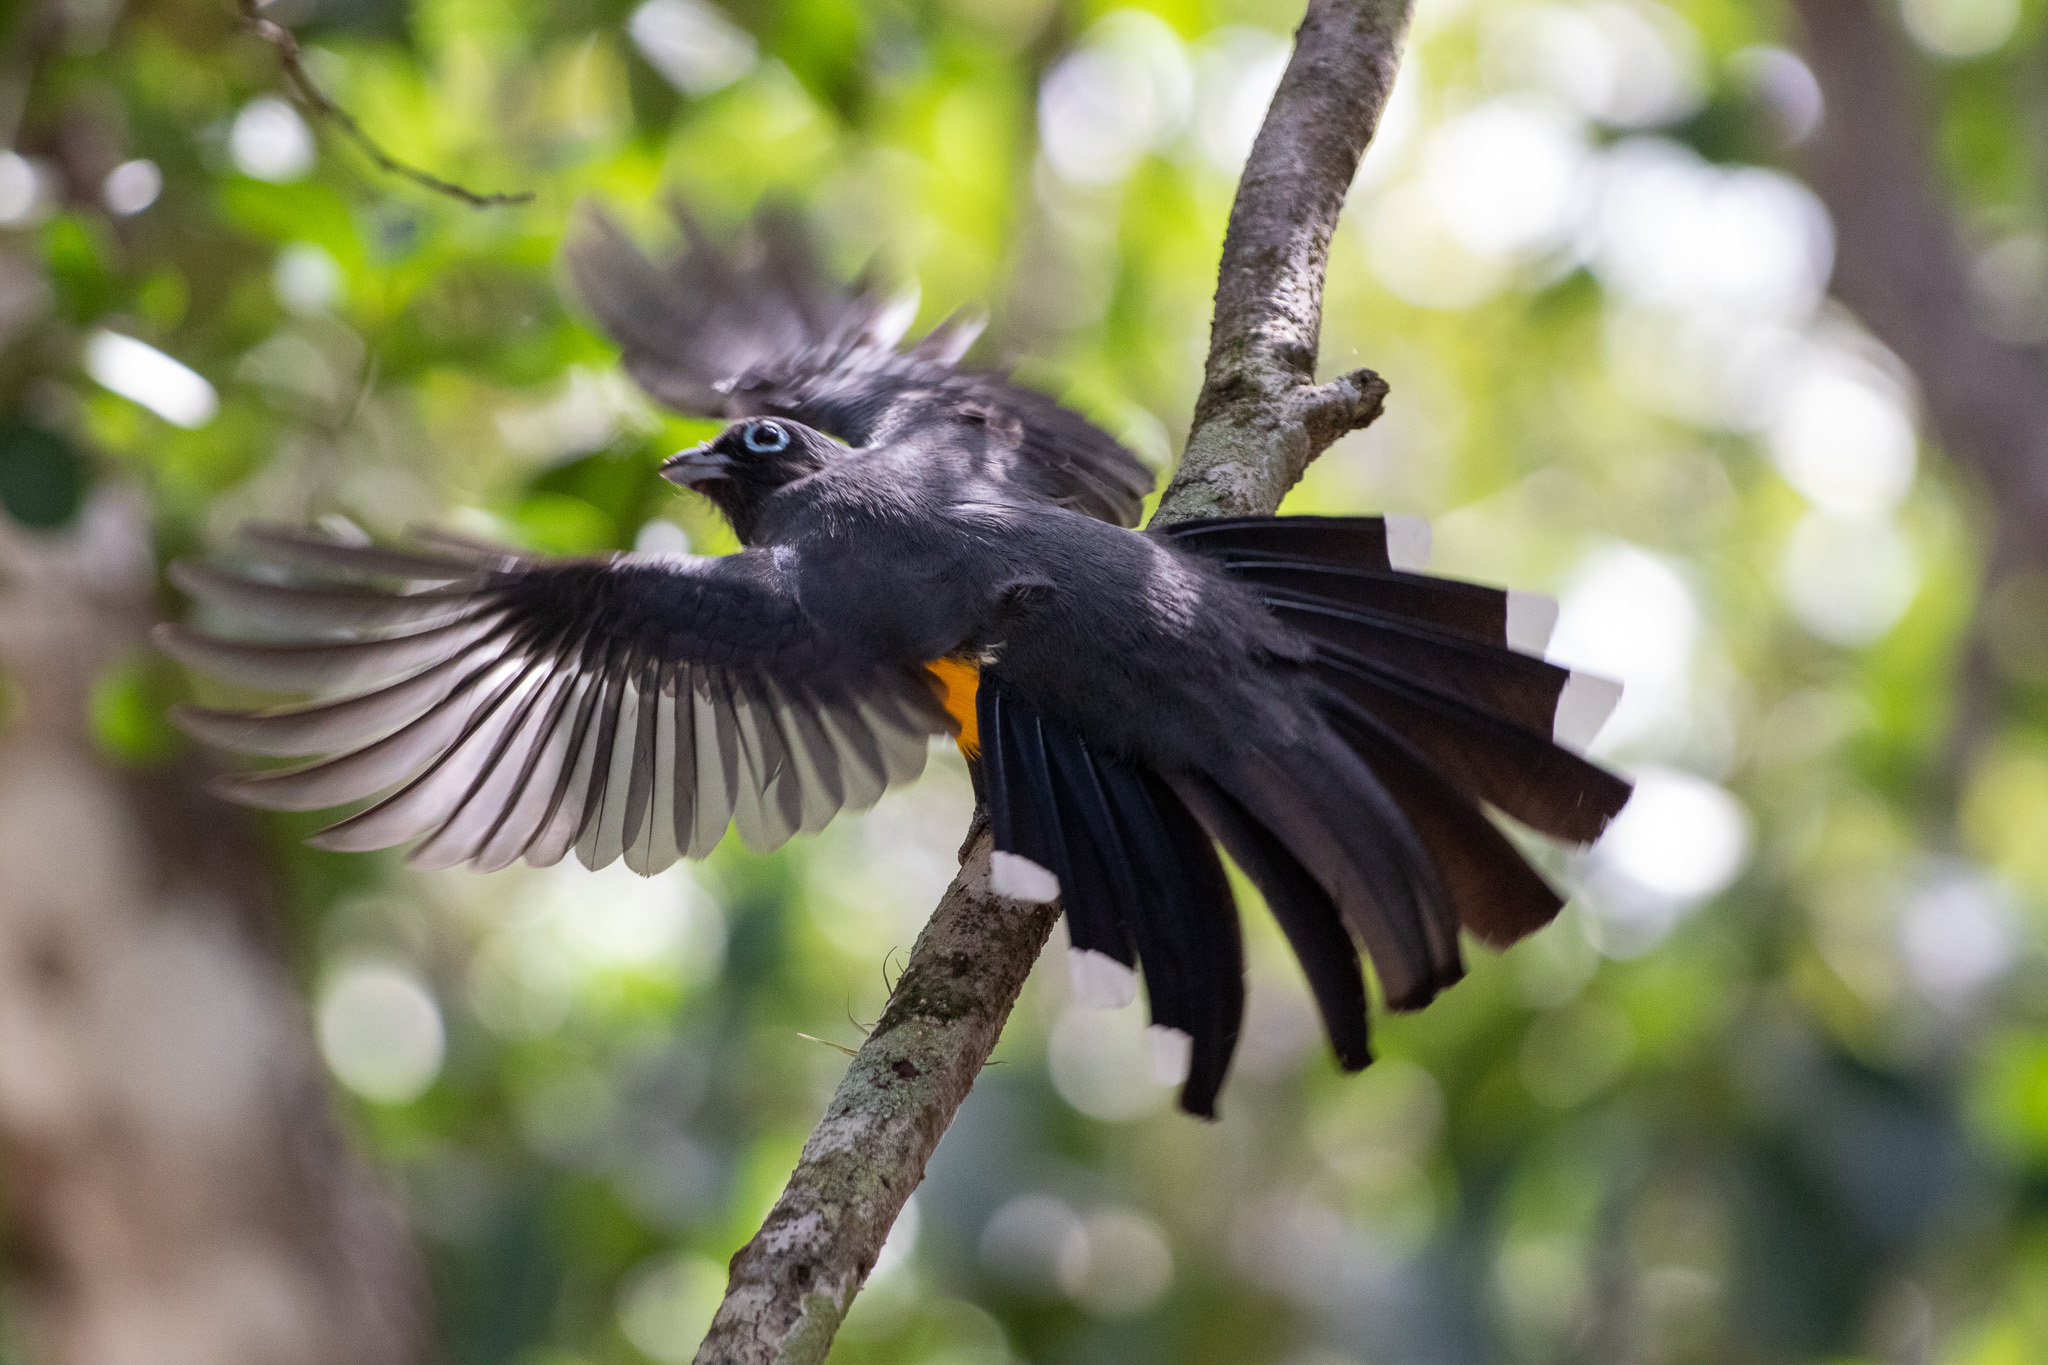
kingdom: Animalia
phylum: Chordata
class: Aves
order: Trogoniformes
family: Trogonidae
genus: Trogon
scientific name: Trogon melanocephalus
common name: Black-headed trogon
